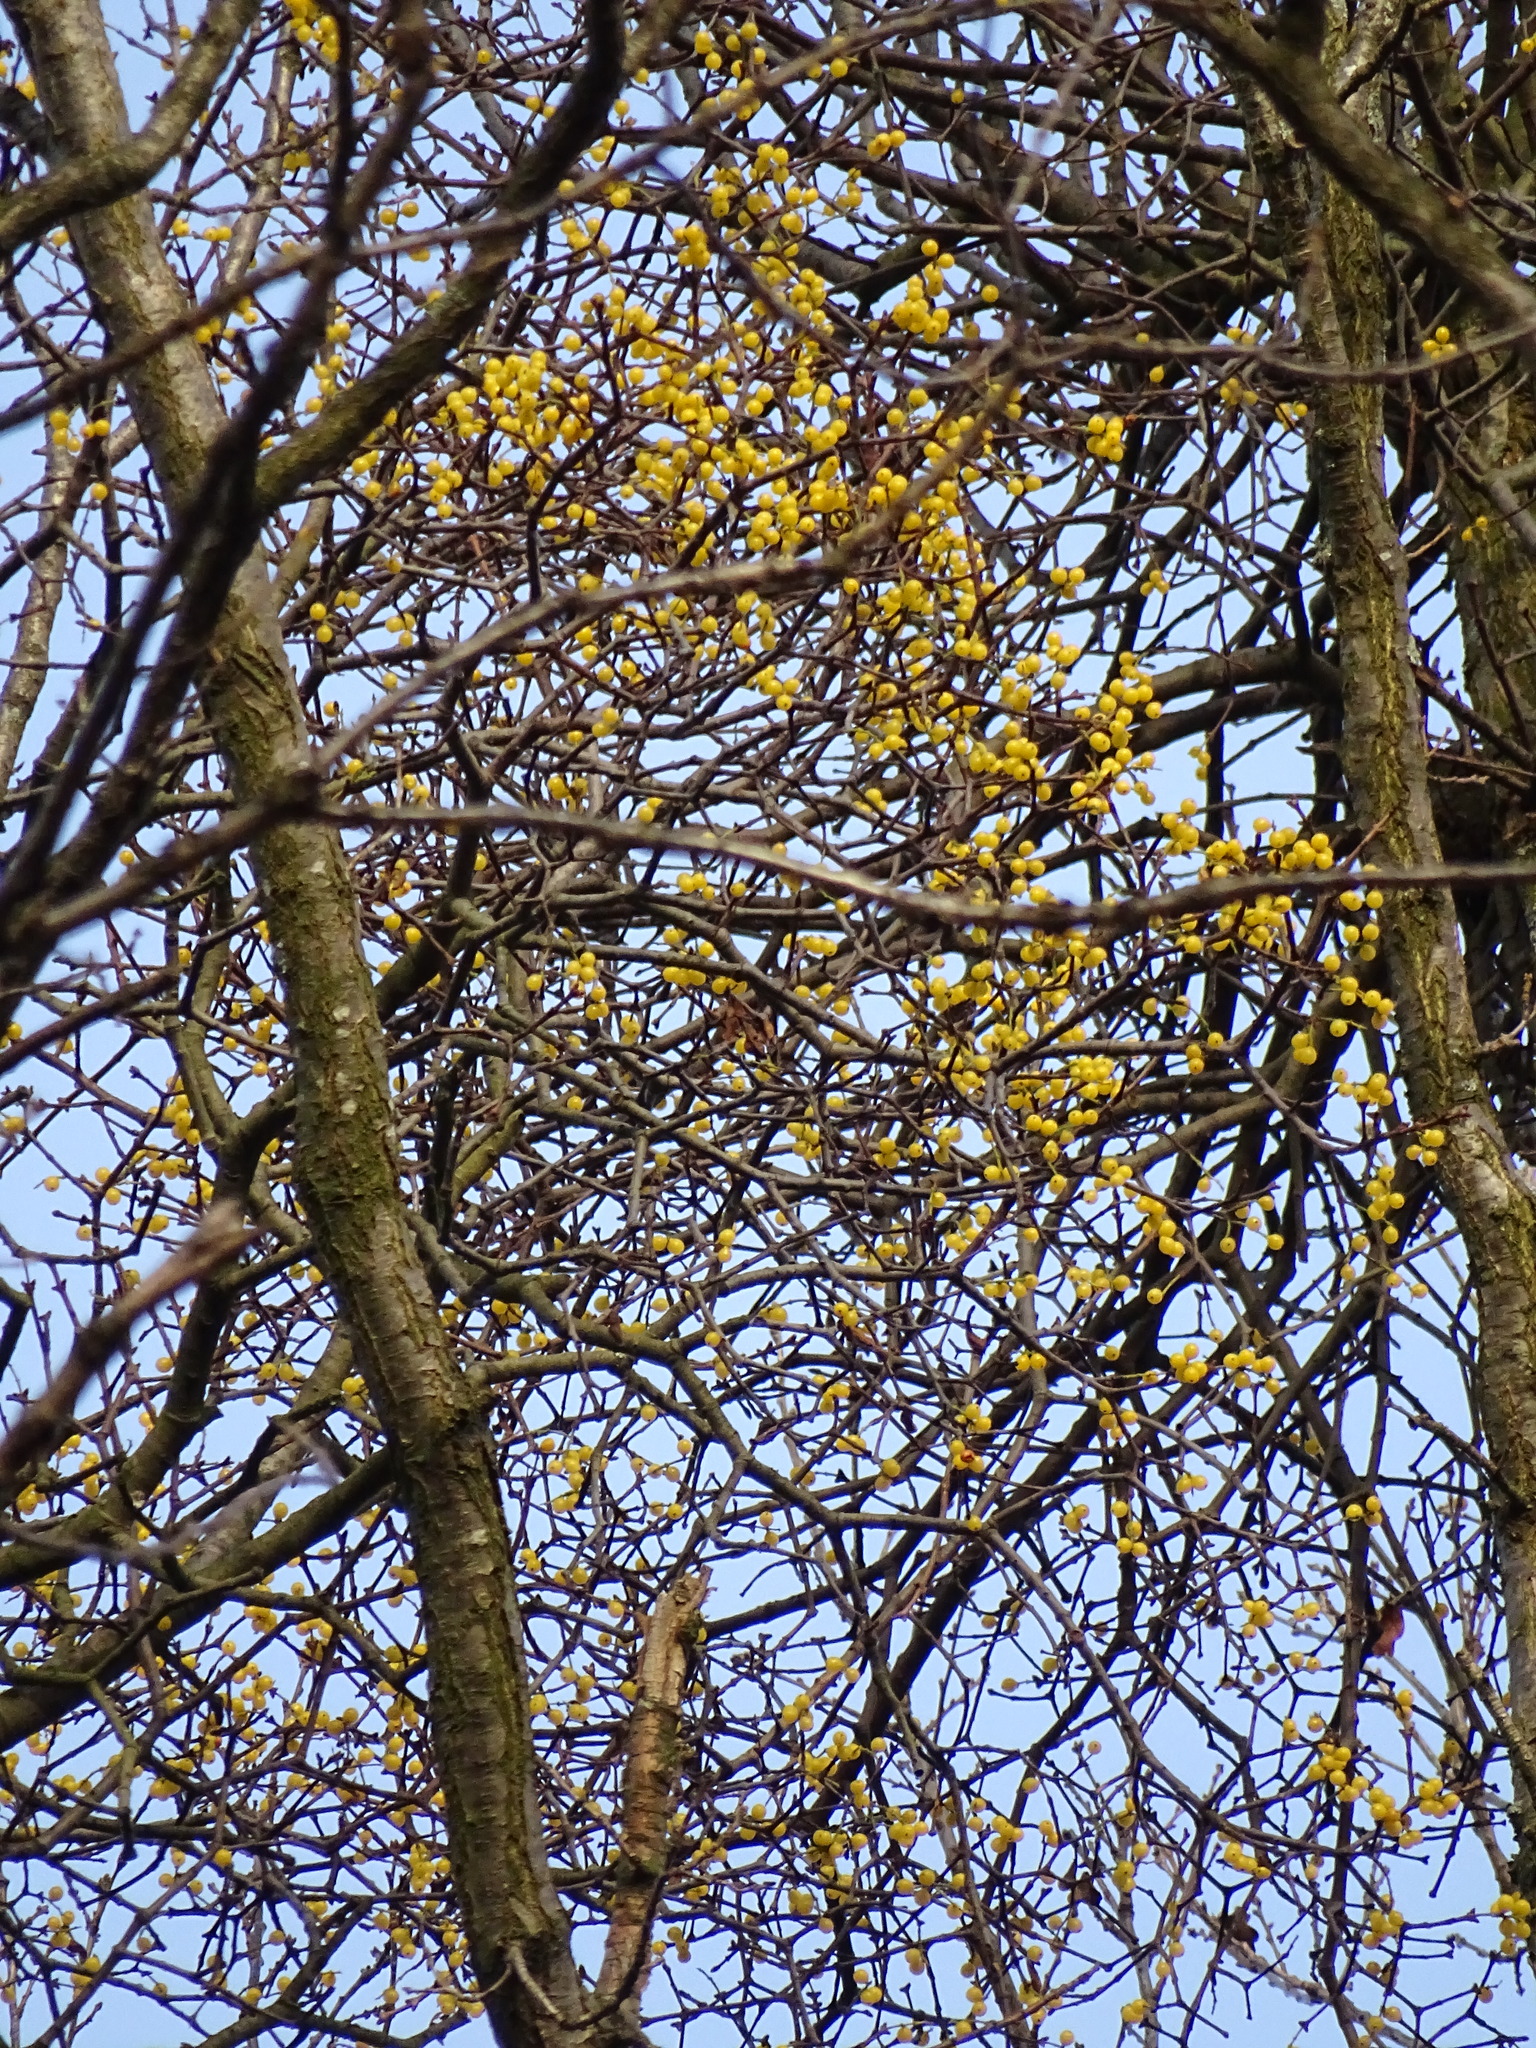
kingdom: Plantae
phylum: Tracheophyta
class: Magnoliopsida
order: Santalales
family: Loranthaceae
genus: Loranthus
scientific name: Loranthus europaeus
